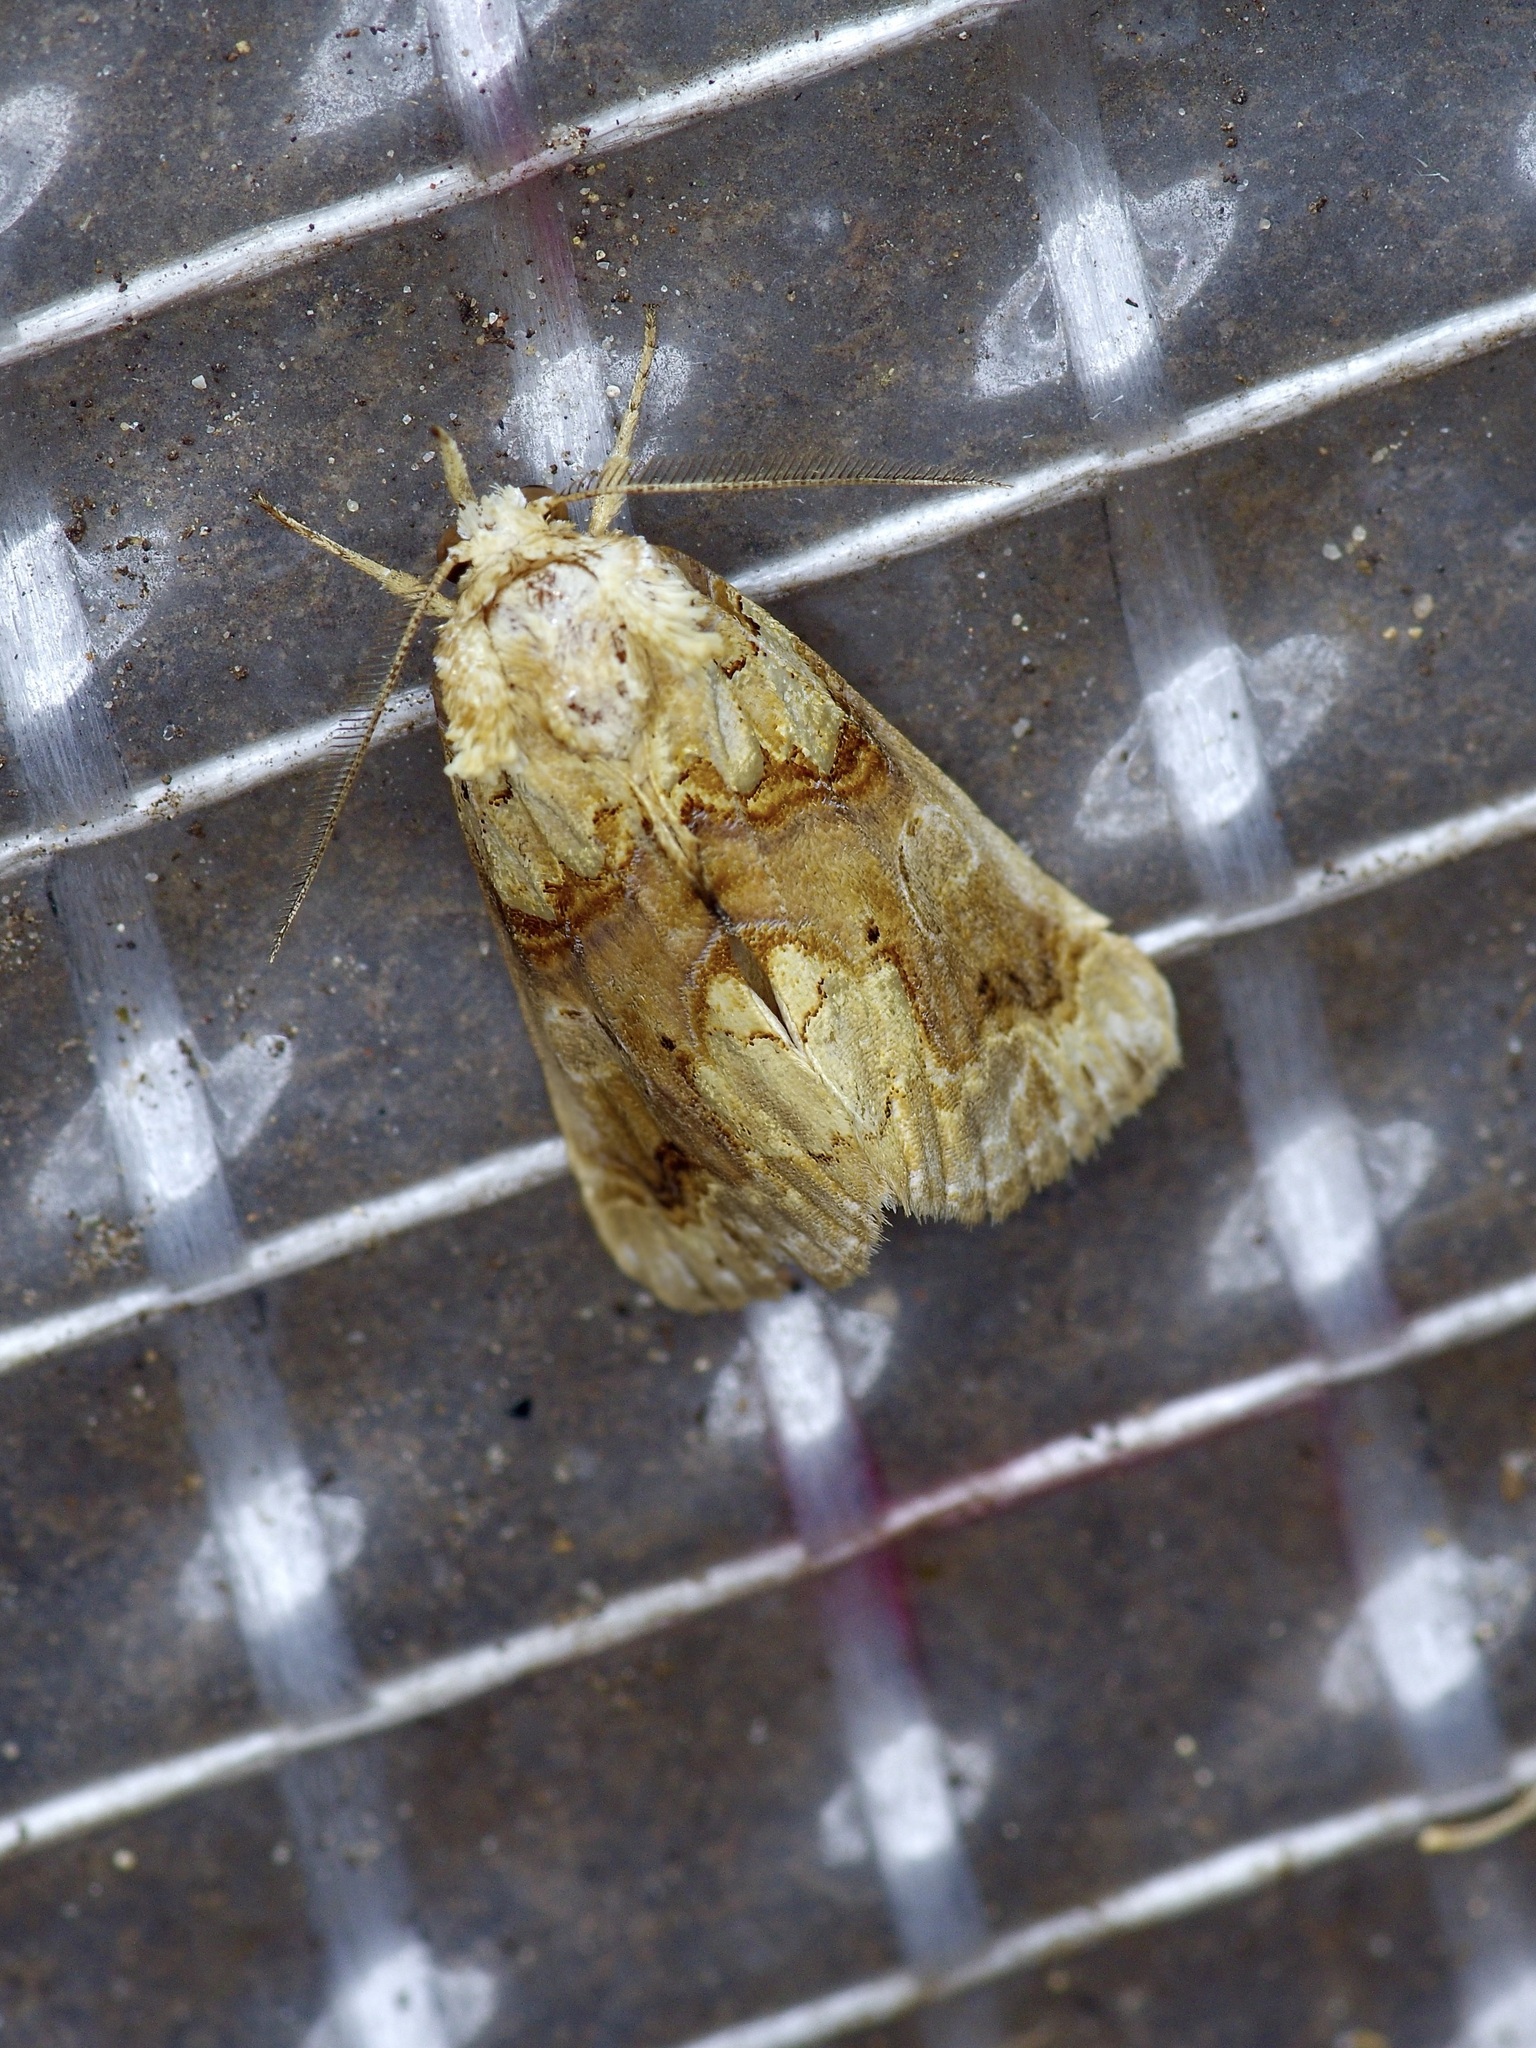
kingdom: Animalia
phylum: Arthropoda
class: Insecta
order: Lepidoptera
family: Erebidae
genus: Plusiodonta
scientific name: Plusiodonta compressipalpis
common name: Moonseed moth
